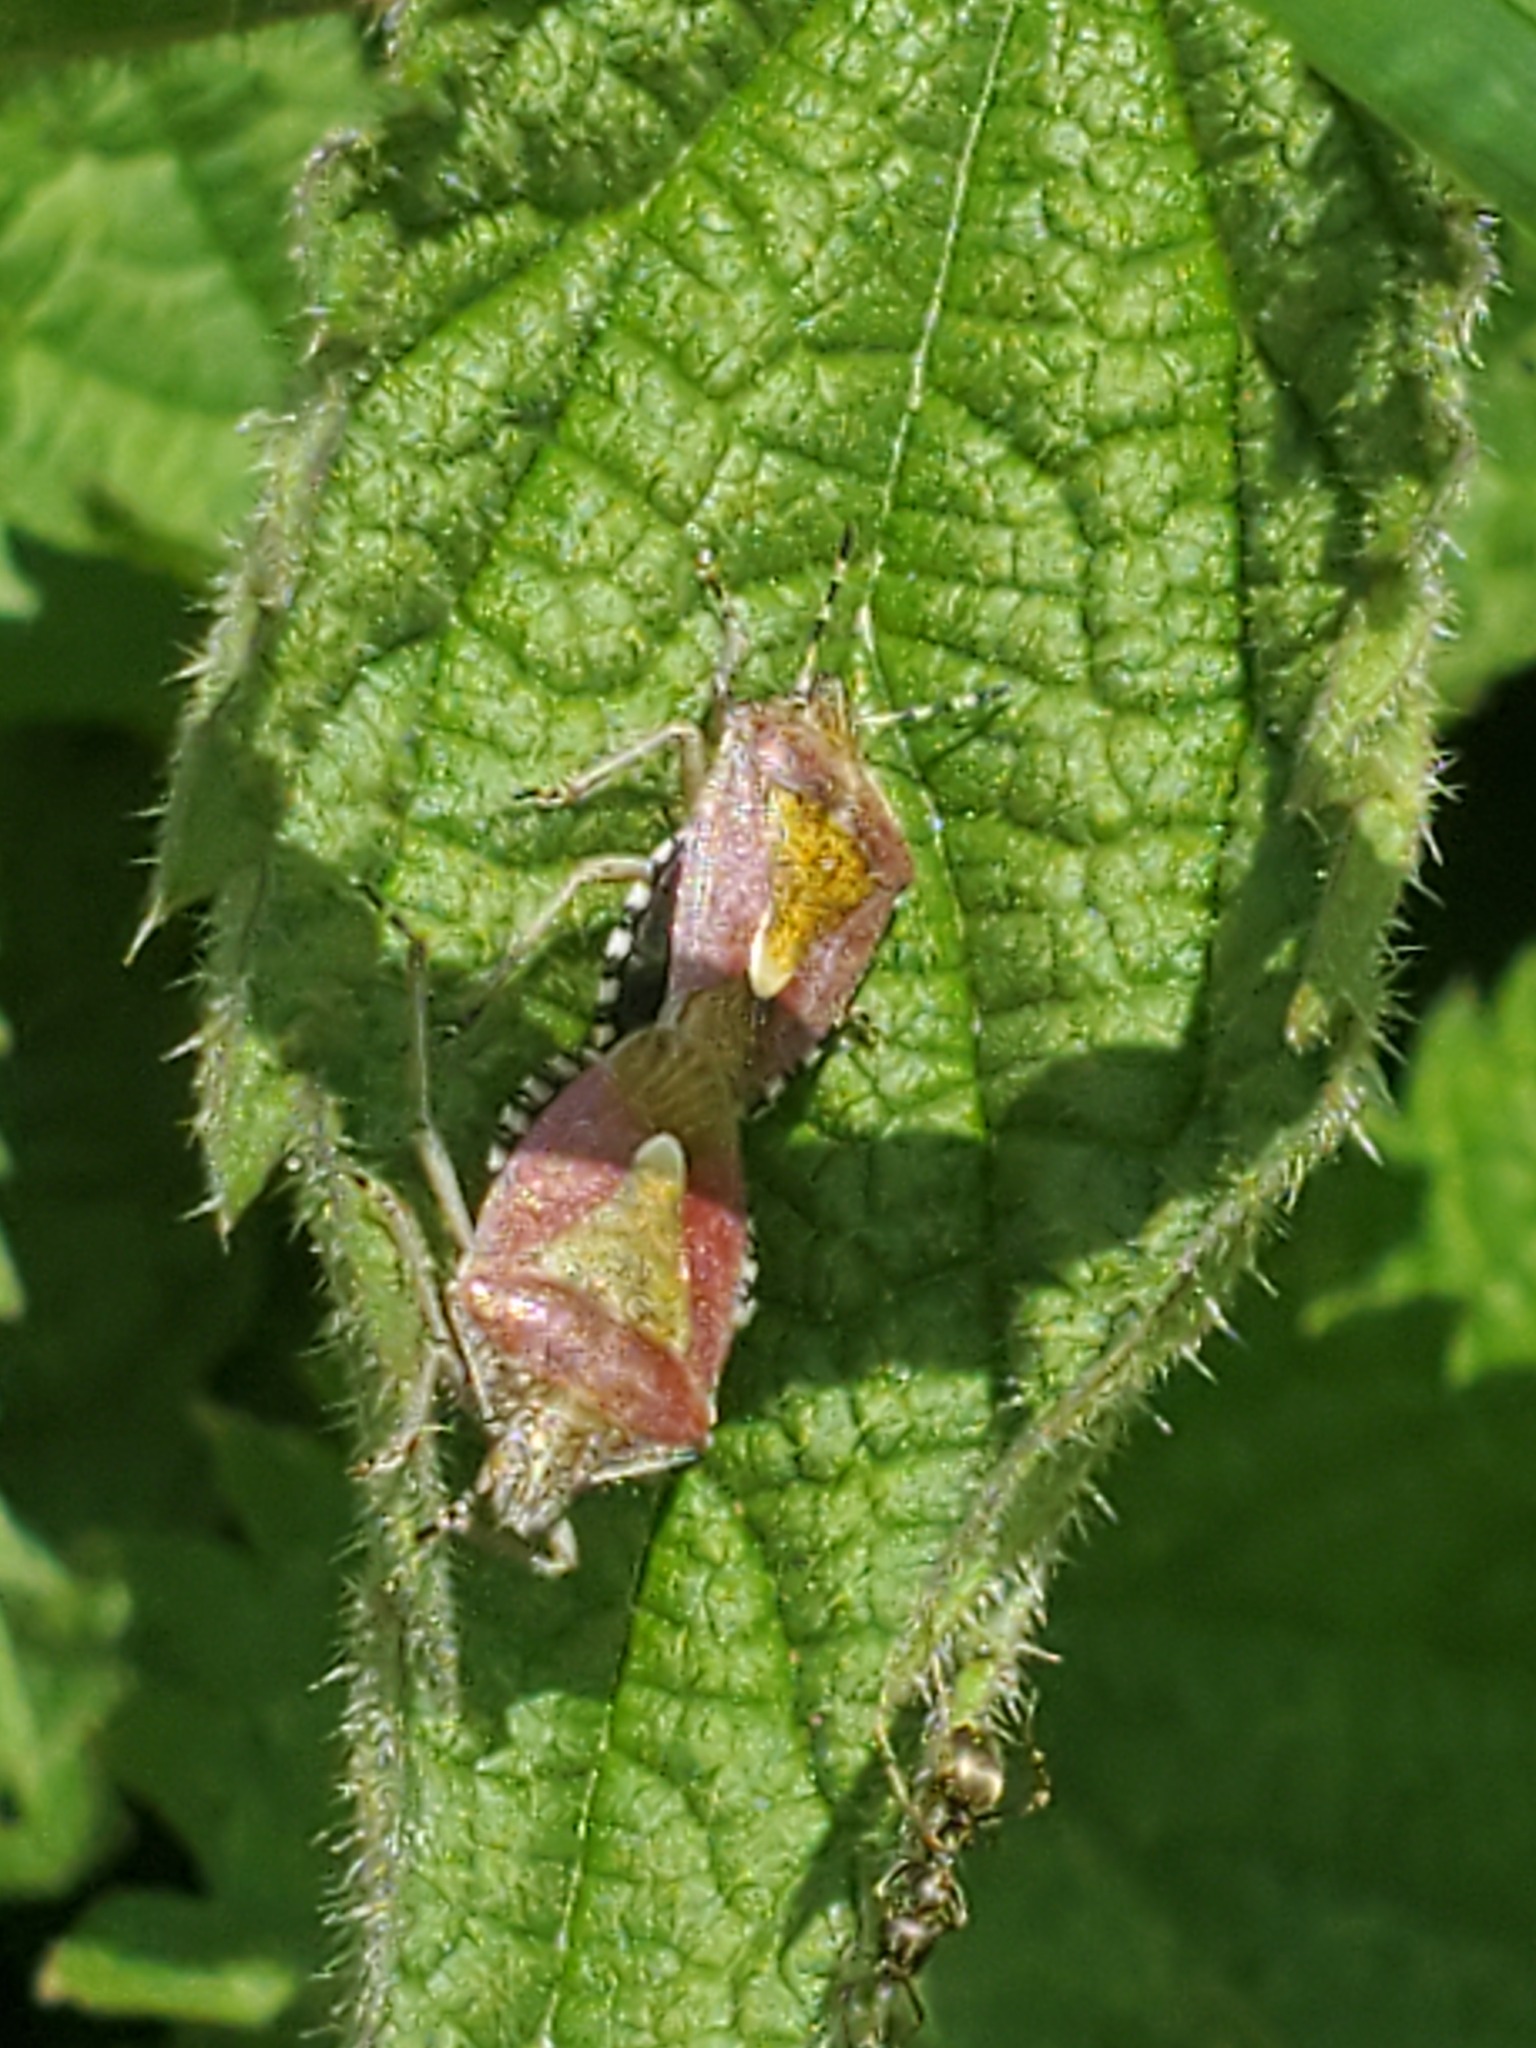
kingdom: Animalia
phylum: Arthropoda
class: Insecta
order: Hemiptera
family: Pentatomidae
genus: Dolycoris
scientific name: Dolycoris baccarum
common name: Sloe bug
